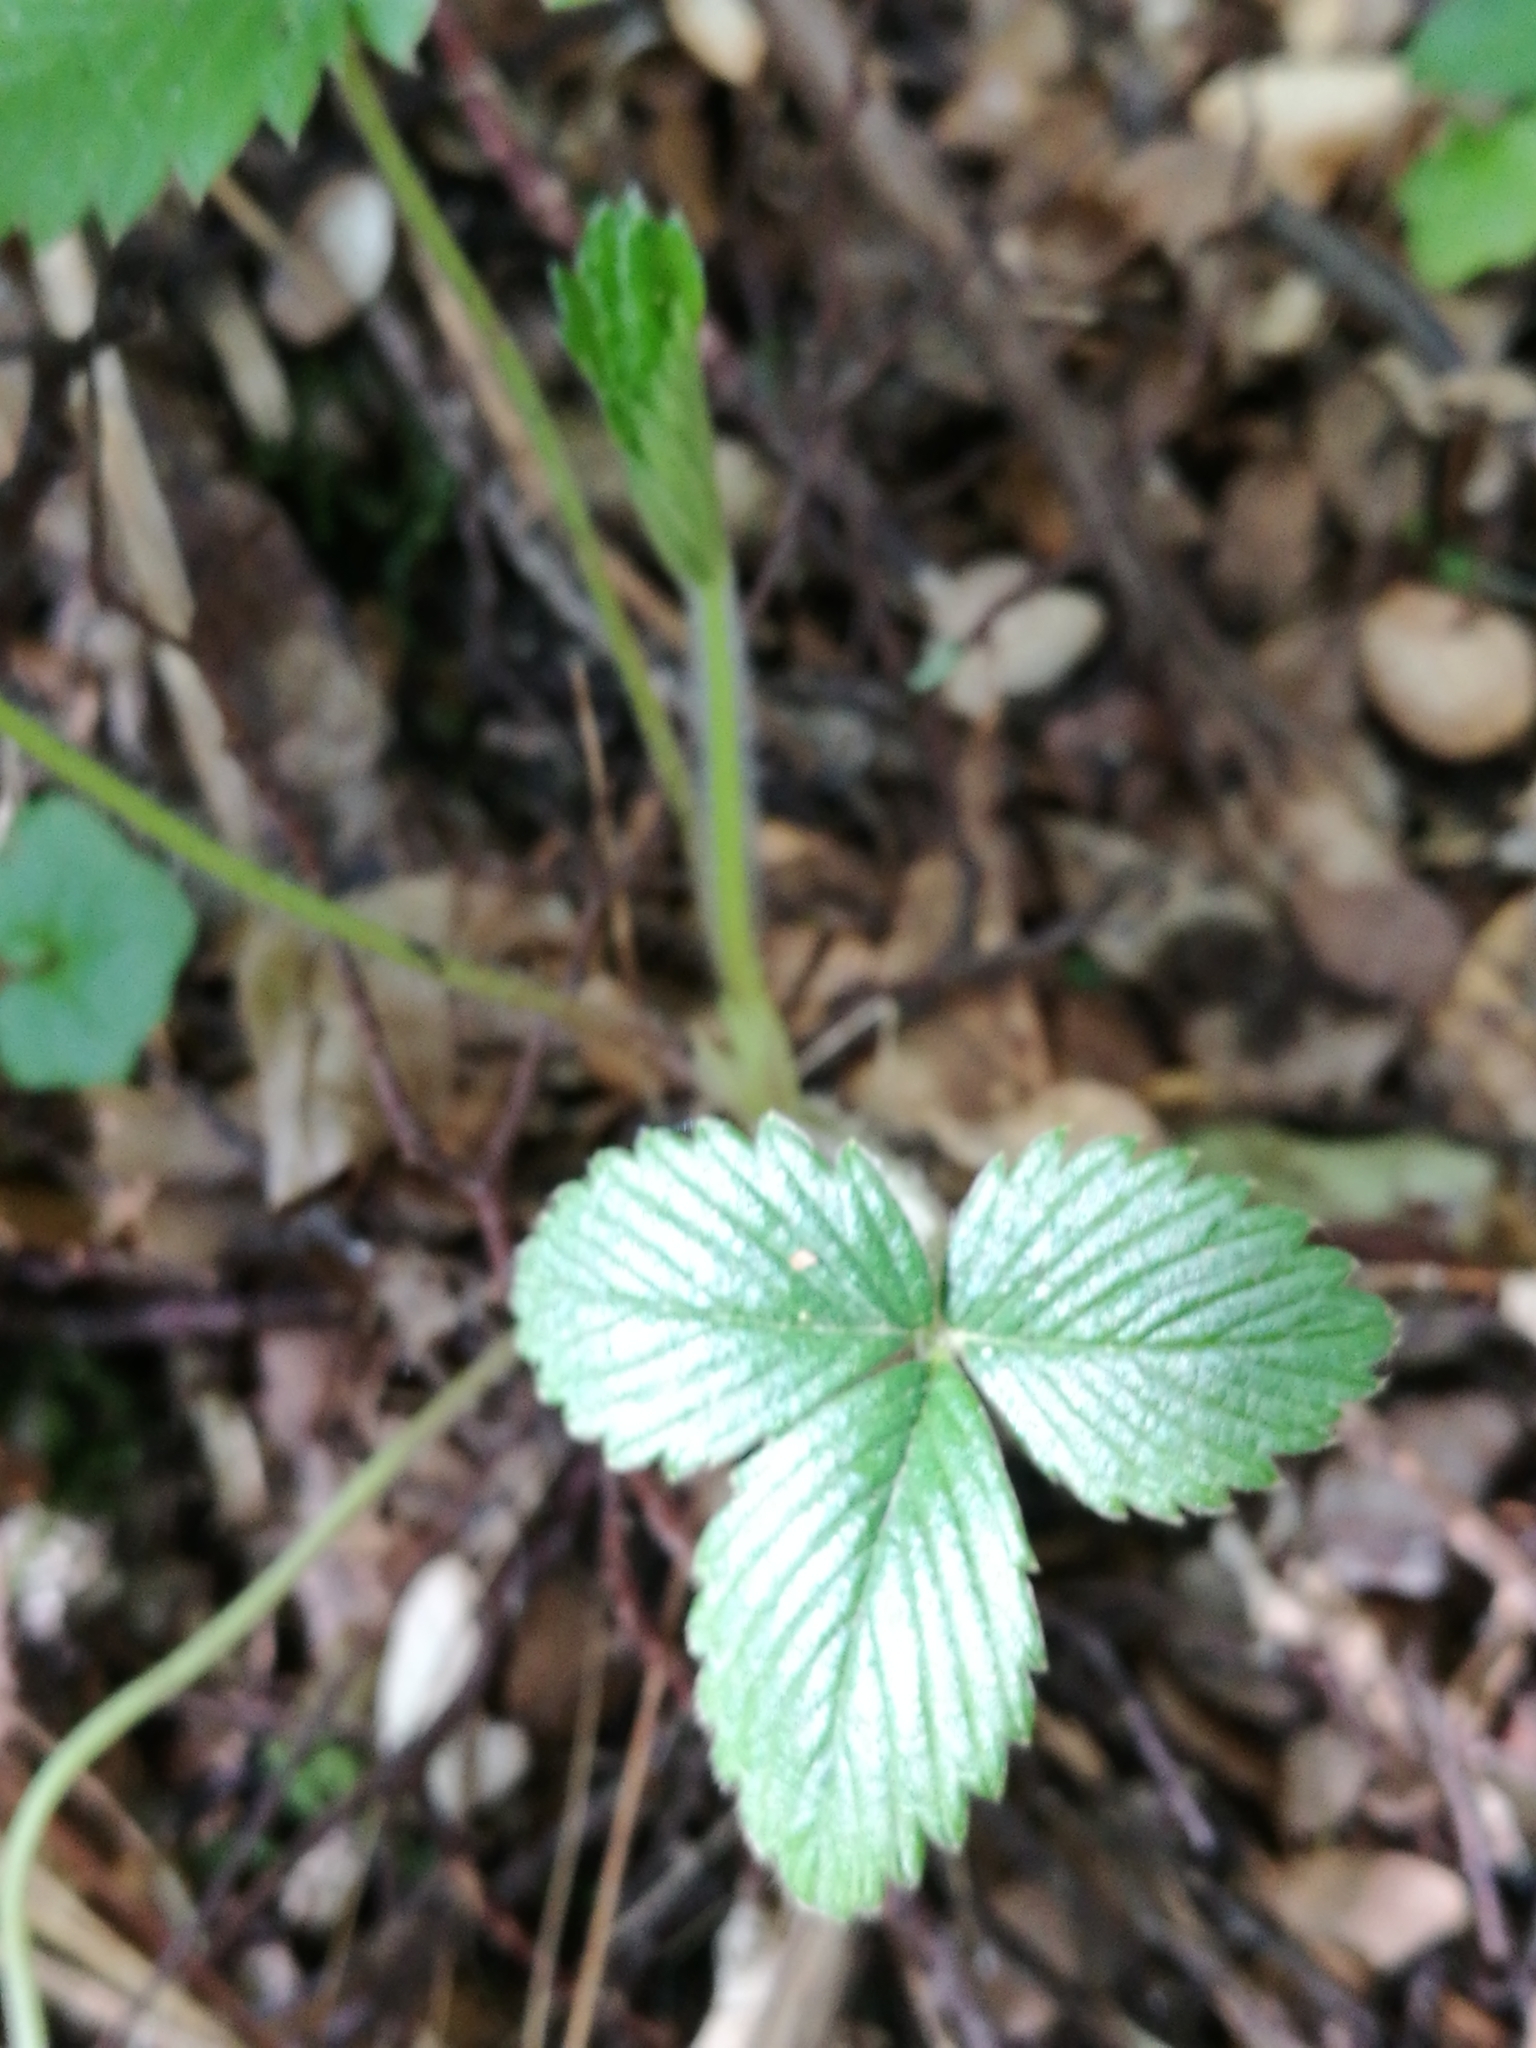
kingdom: Plantae
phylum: Tracheophyta
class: Magnoliopsida
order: Rosales
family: Rosaceae
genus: Fragaria
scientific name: Fragaria ananassa
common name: Garden strawberry
